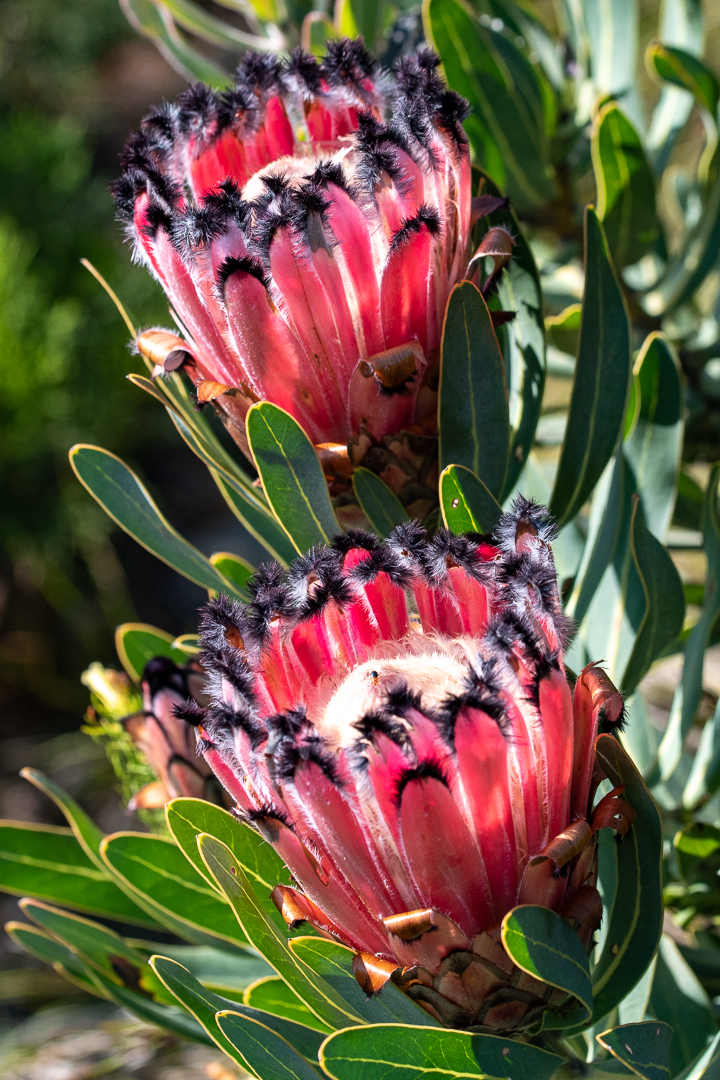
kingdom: Plantae
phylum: Tracheophyta
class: Magnoliopsida
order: Proteales
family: Proteaceae
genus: Protea
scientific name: Protea
